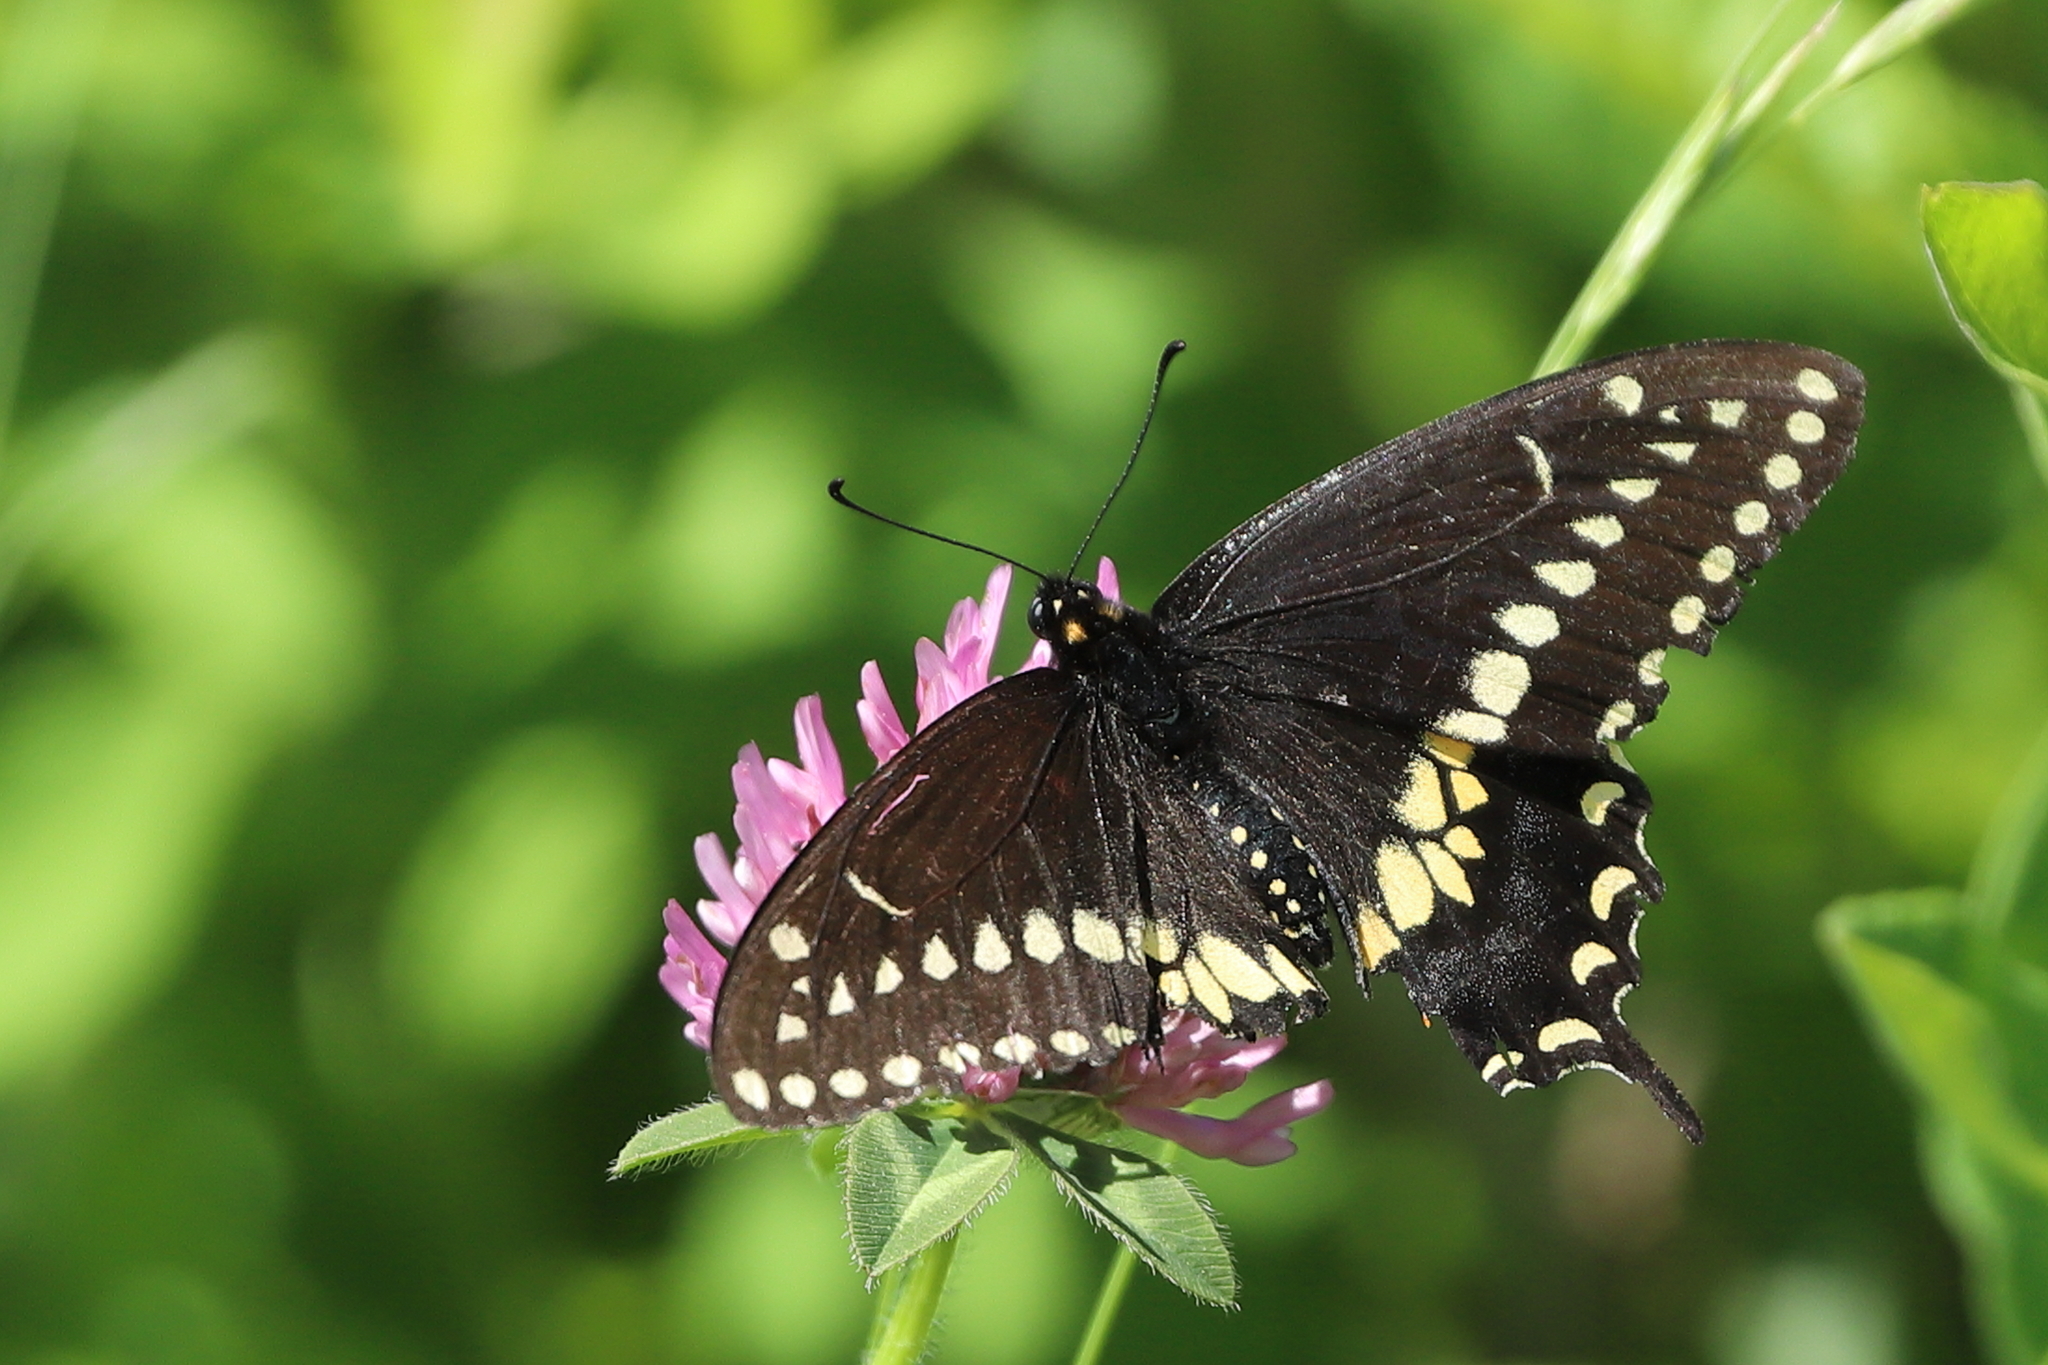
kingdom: Animalia
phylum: Arthropoda
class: Insecta
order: Lepidoptera
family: Papilionidae
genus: Papilio
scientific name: Papilio polyxenes
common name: Black swallowtail
